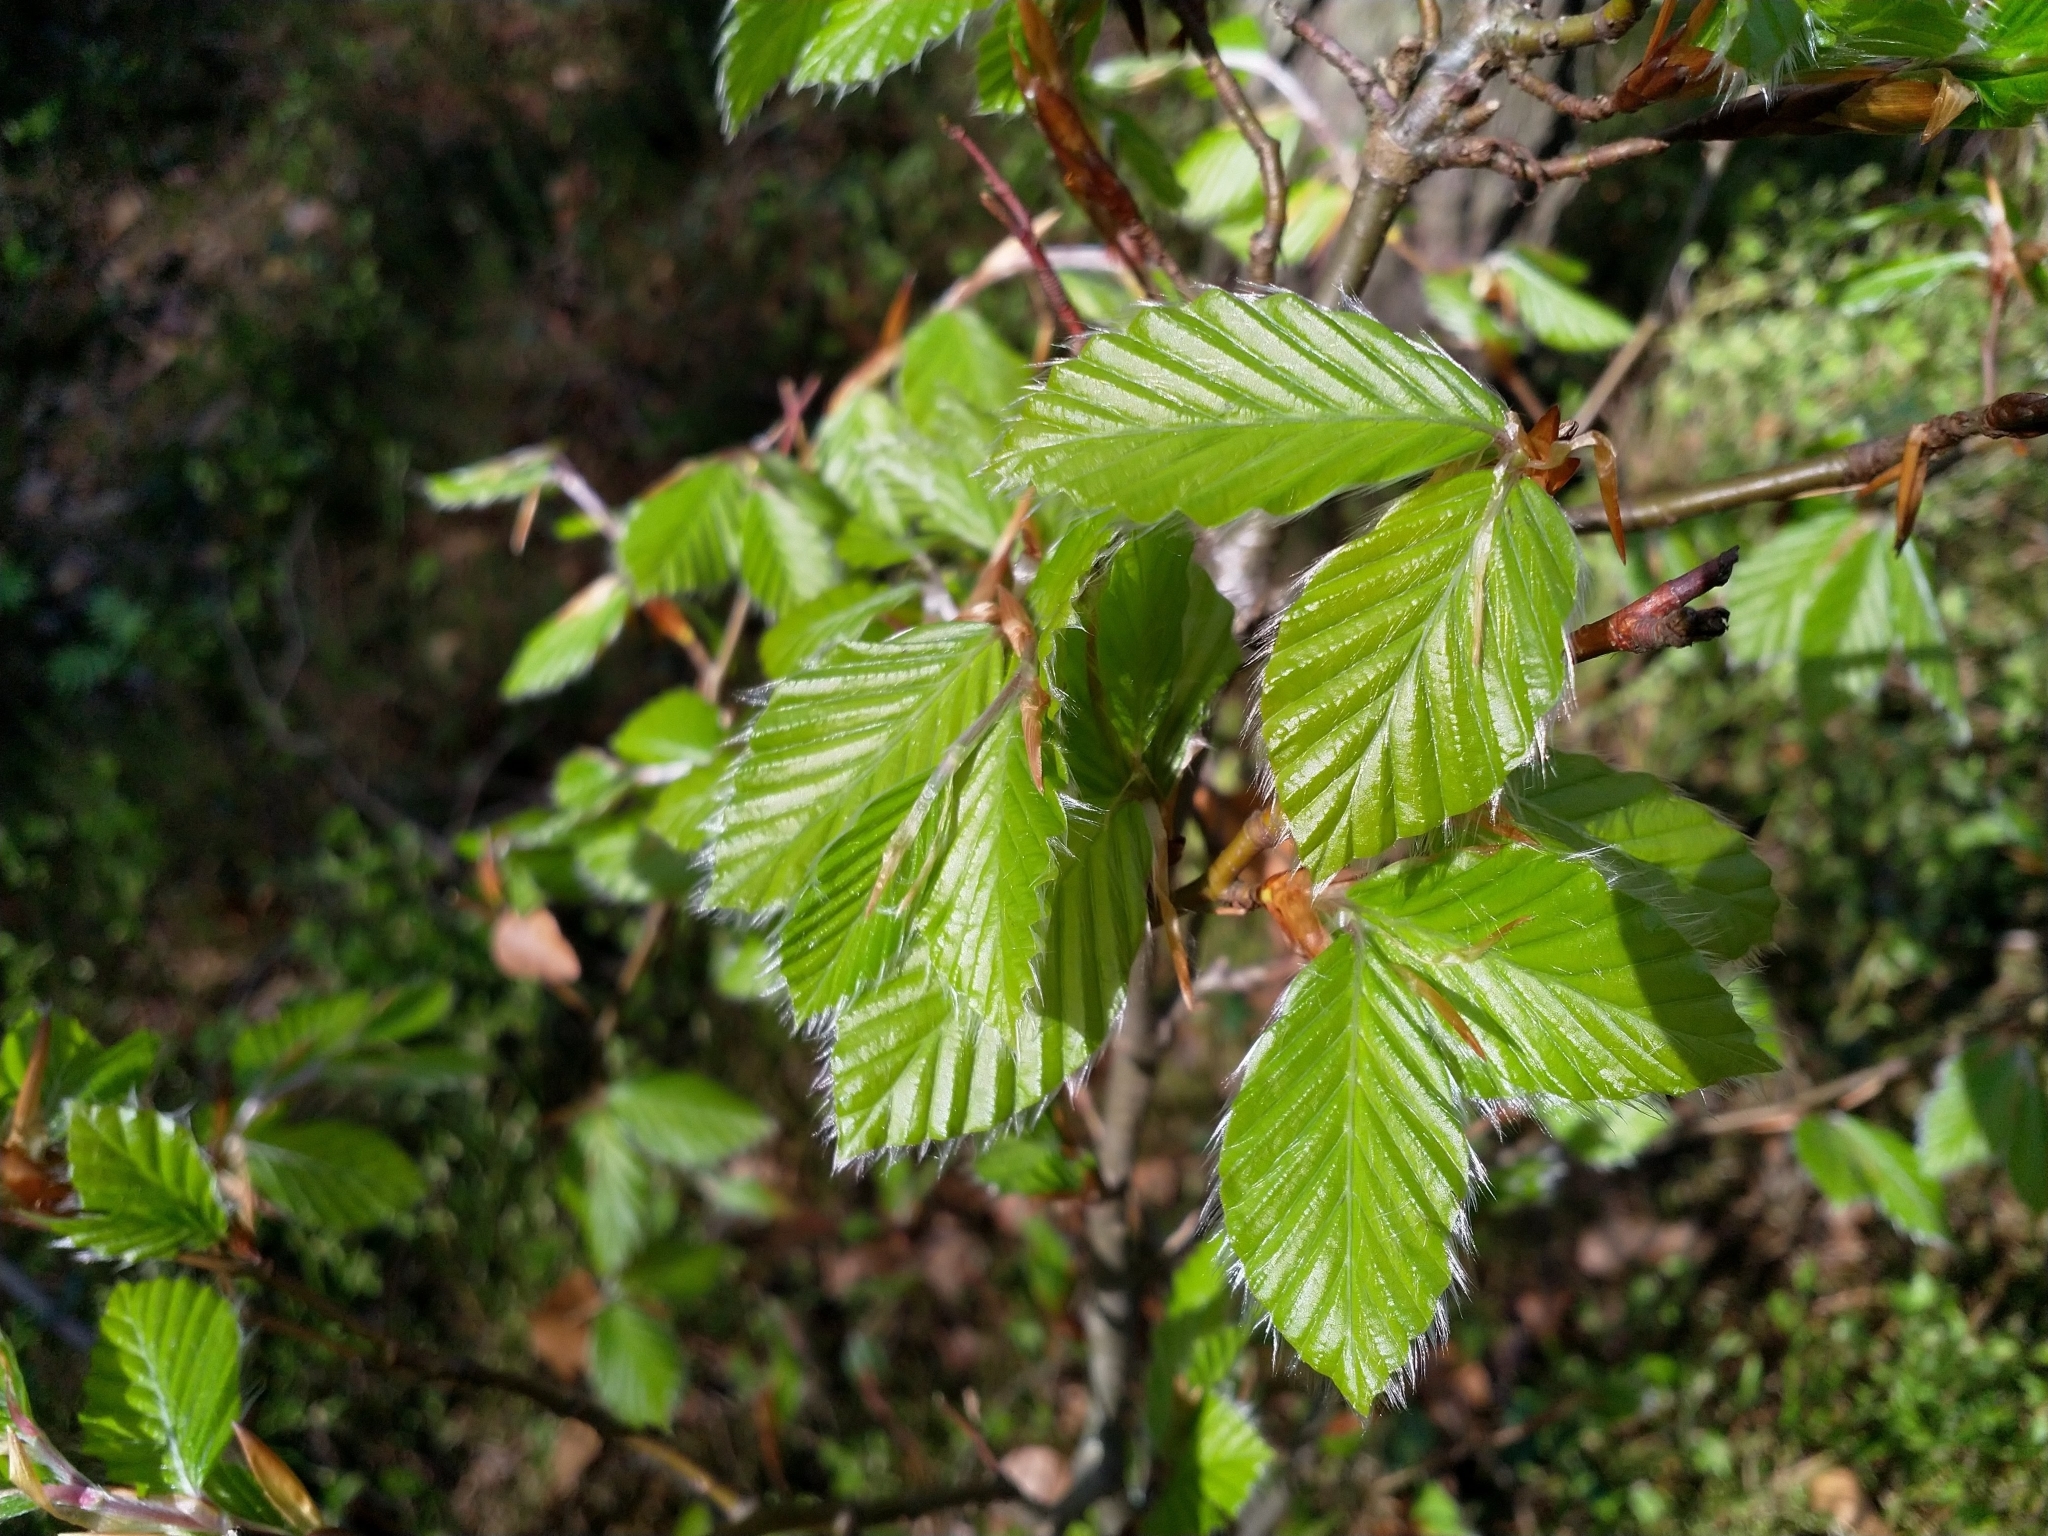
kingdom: Plantae
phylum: Tracheophyta
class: Magnoliopsida
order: Fagales
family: Fagaceae
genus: Fagus
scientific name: Fagus sylvatica
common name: Beech
